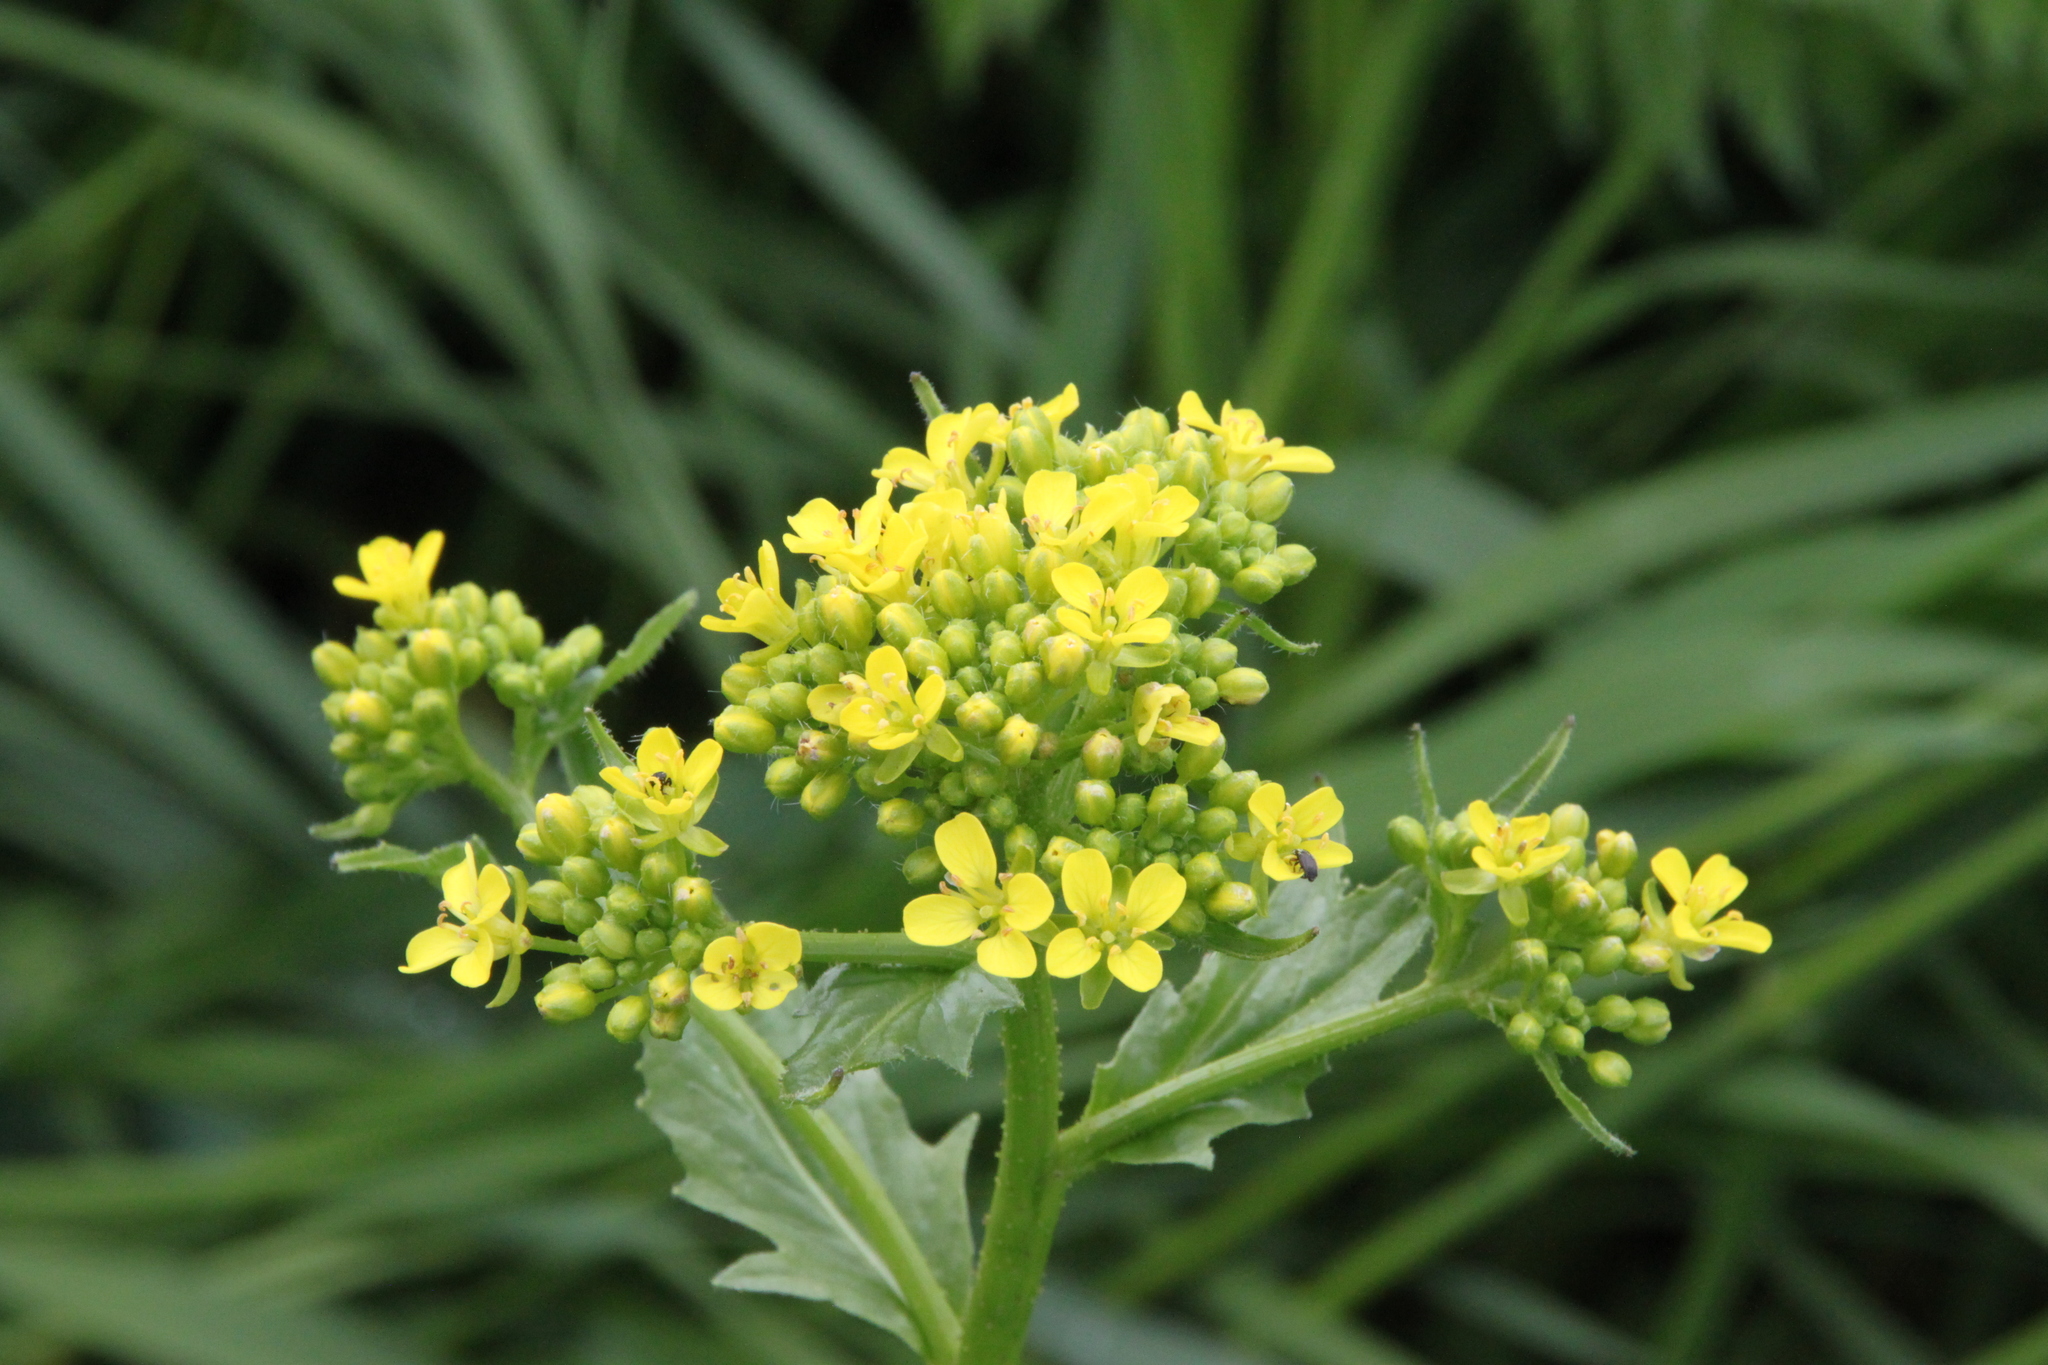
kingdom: Plantae
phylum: Tracheophyta
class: Magnoliopsida
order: Brassicales
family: Brassicaceae
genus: Bunias
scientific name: Bunias orientalis
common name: Warty-cabbage
